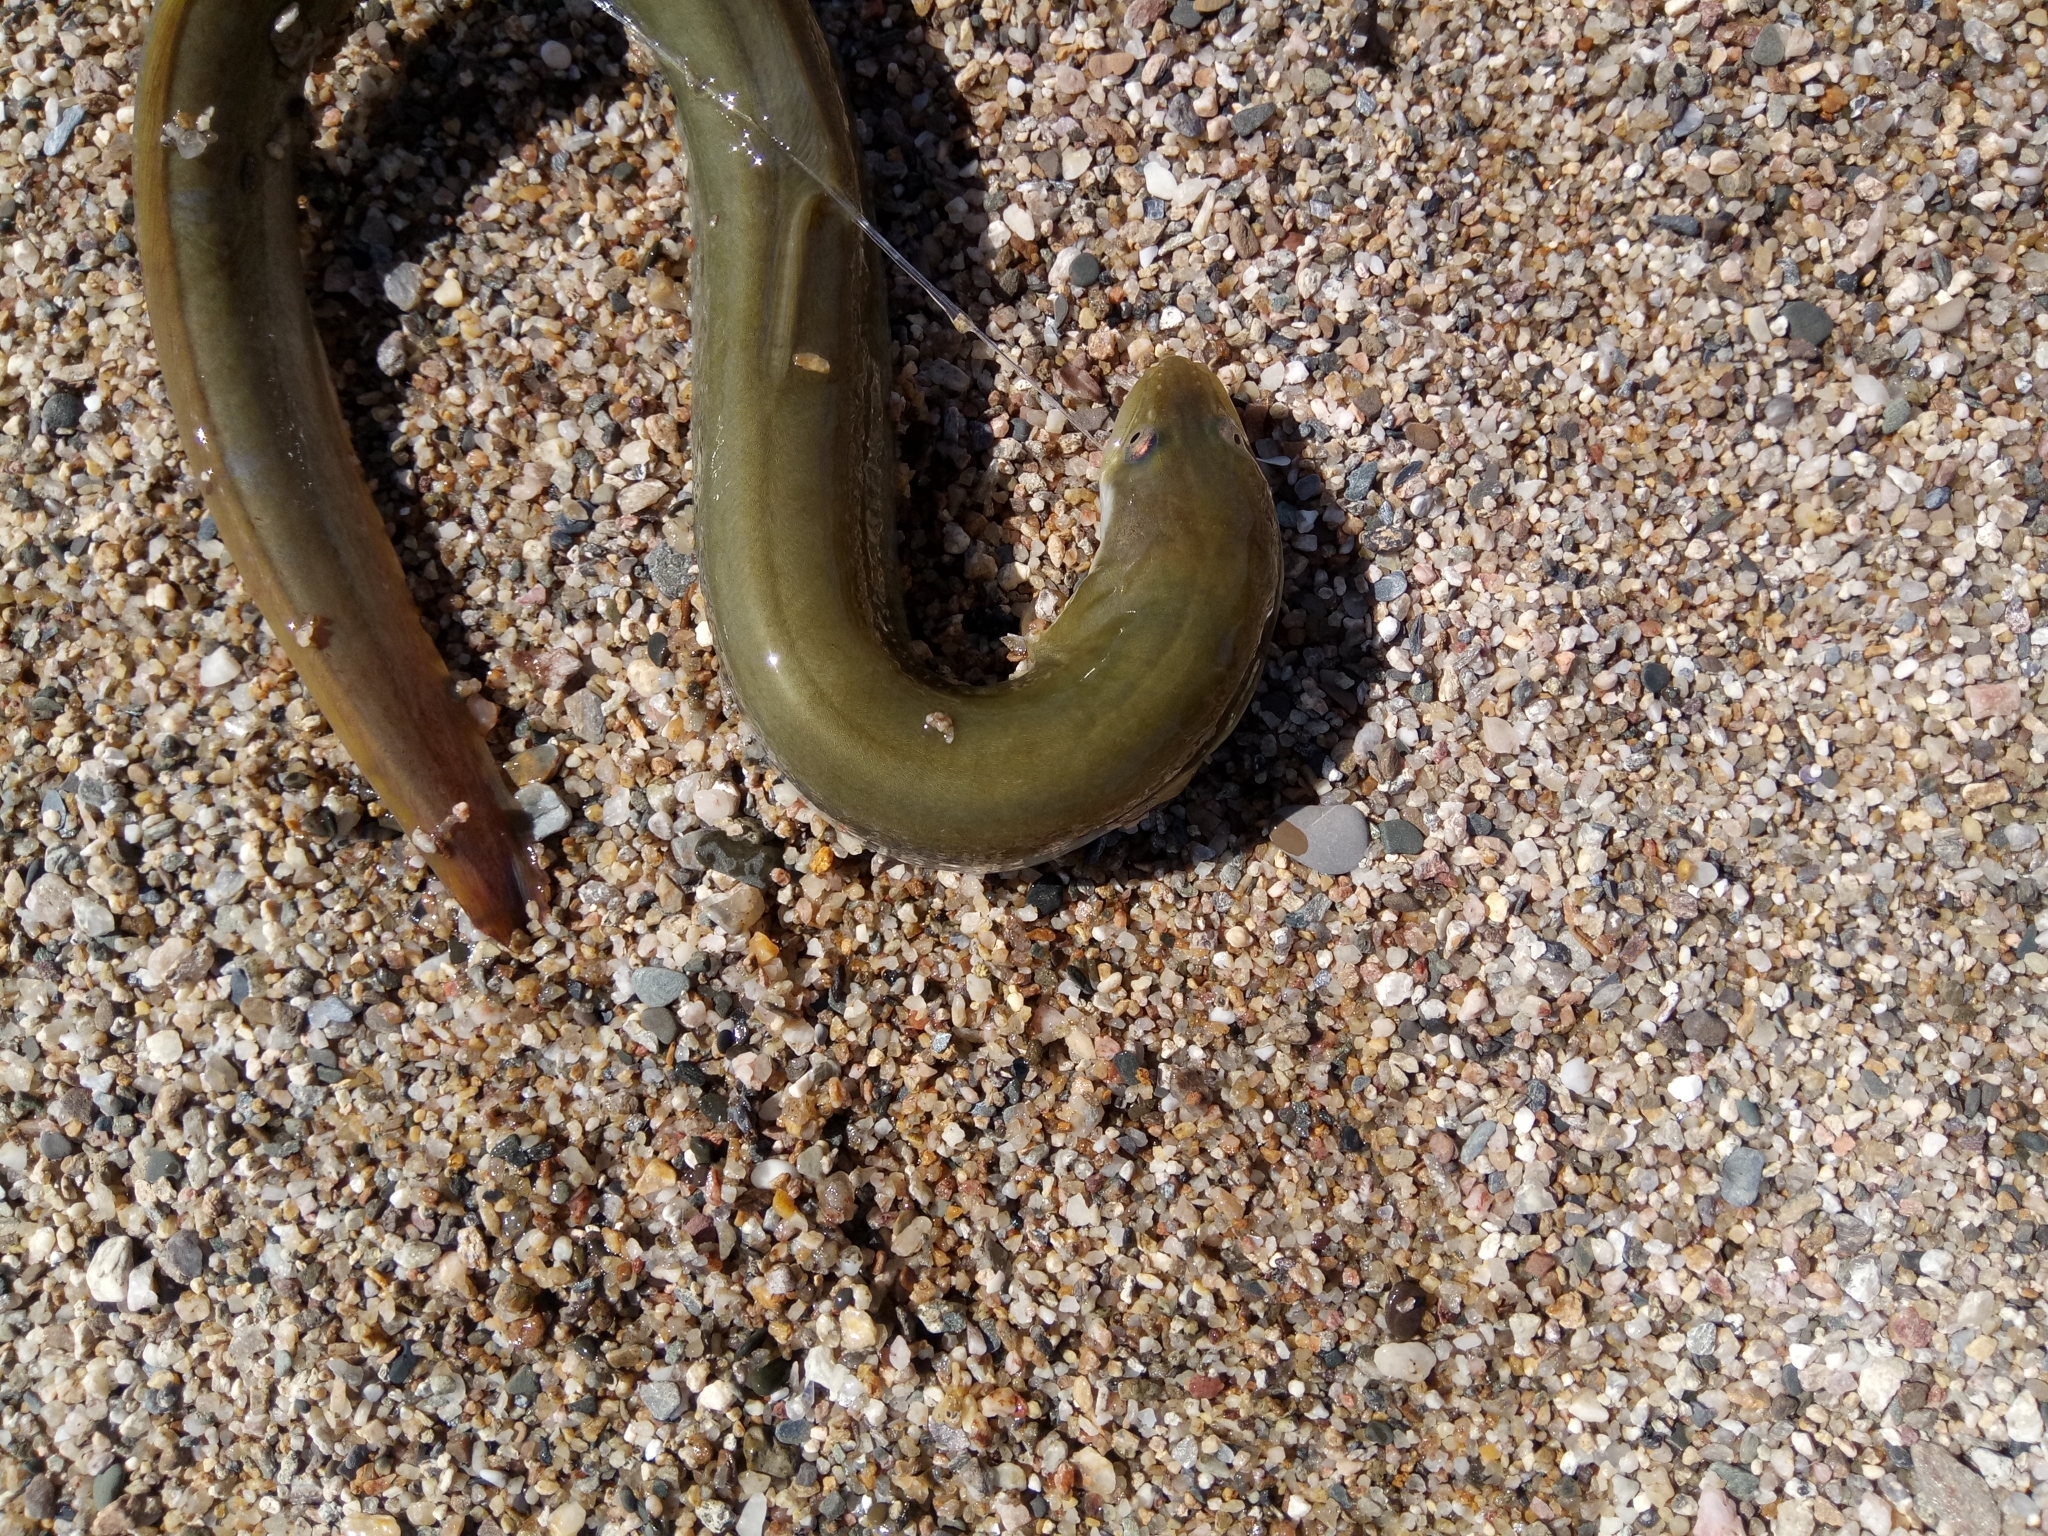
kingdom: Animalia
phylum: Chordata
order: Anguilliformes
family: Anguillidae
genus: Anguilla
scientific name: Anguilla anguilla
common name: European eel
